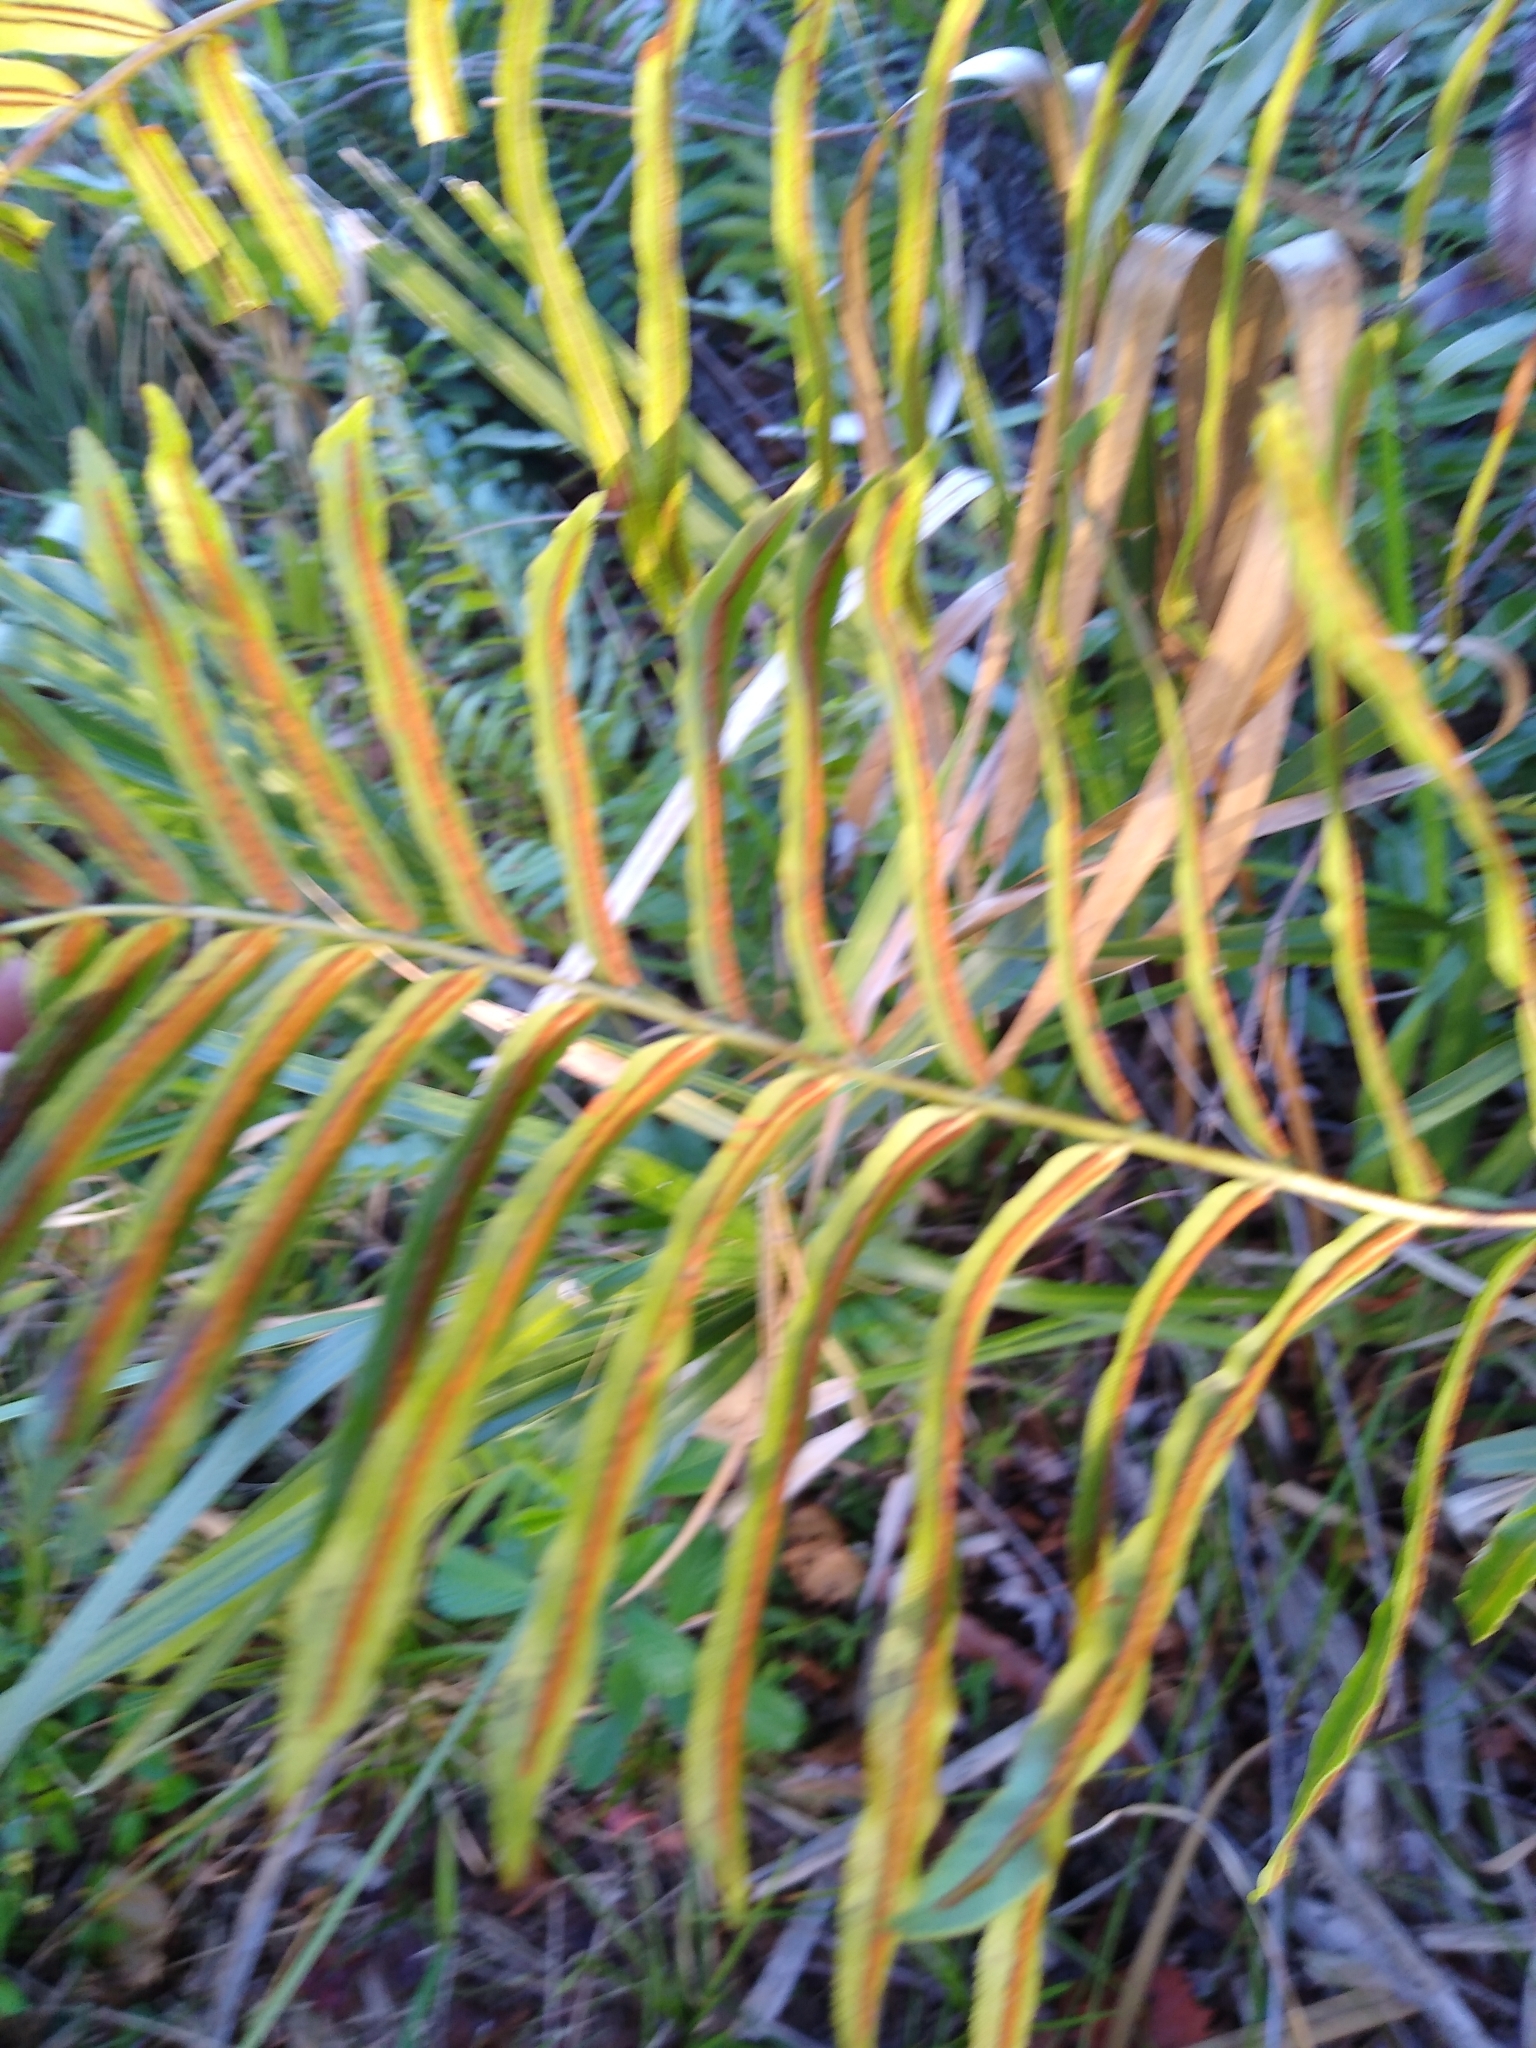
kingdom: Plantae
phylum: Tracheophyta
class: Polypodiopsida
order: Polypodiales
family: Blechnaceae
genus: Telmatoblechnum
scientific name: Telmatoblechnum serrulatum
